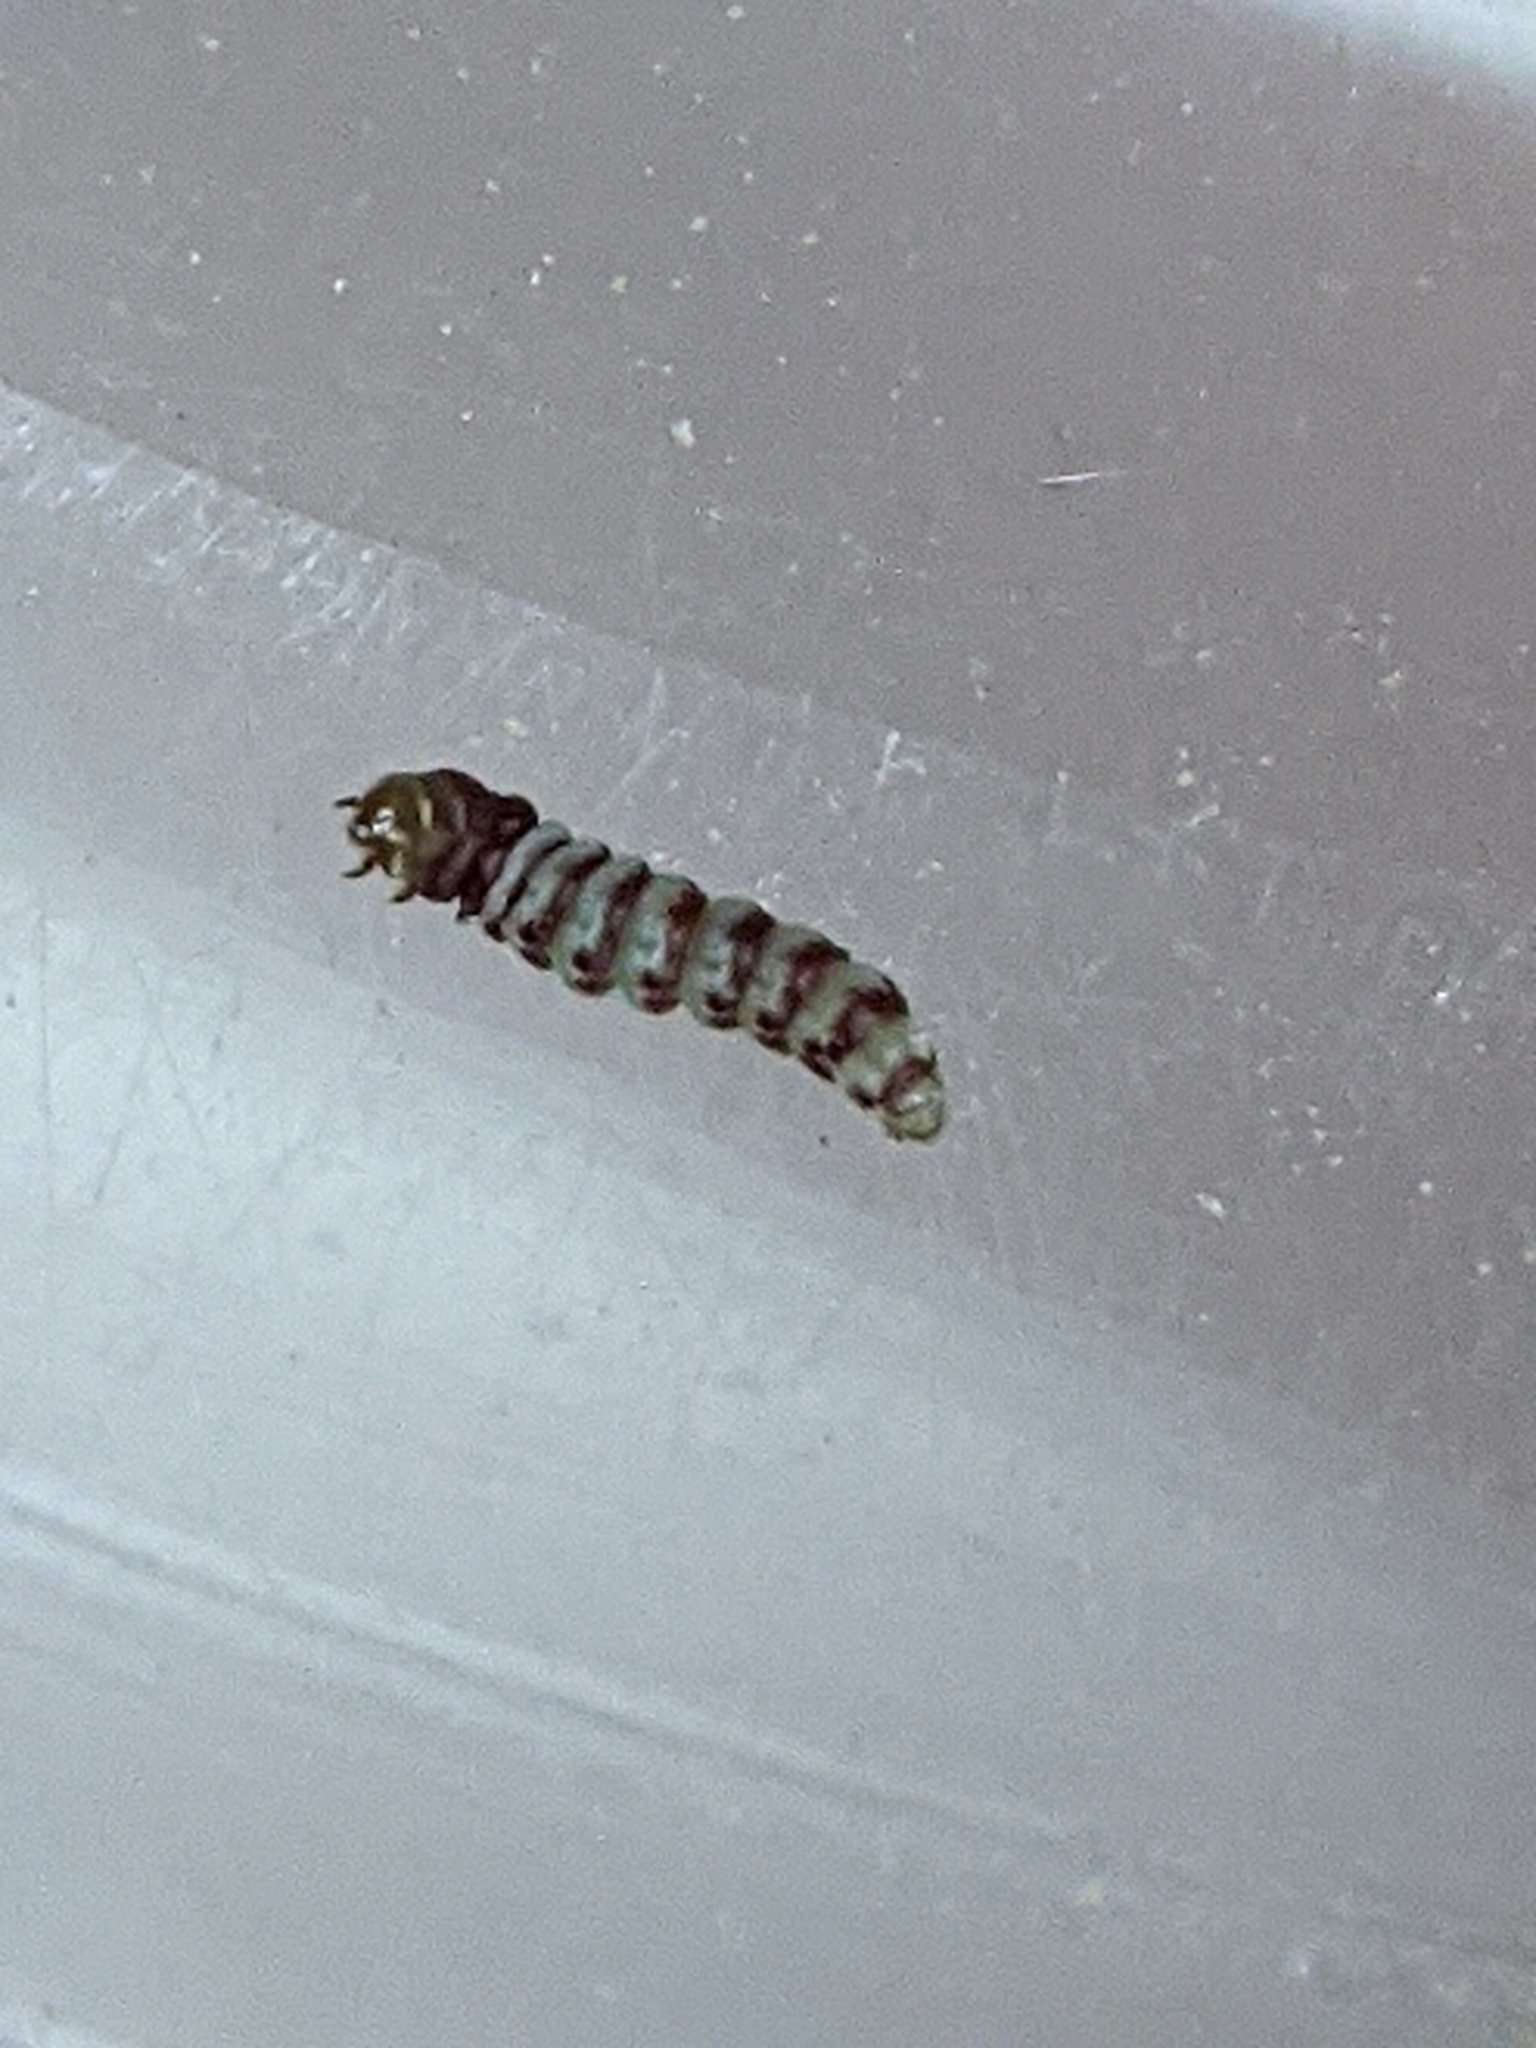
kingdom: Animalia
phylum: Arthropoda
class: Insecta
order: Lepidoptera
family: Gelechiidae
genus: Arogalea
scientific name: Arogalea cristifasciella
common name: White stripe-backed moth
